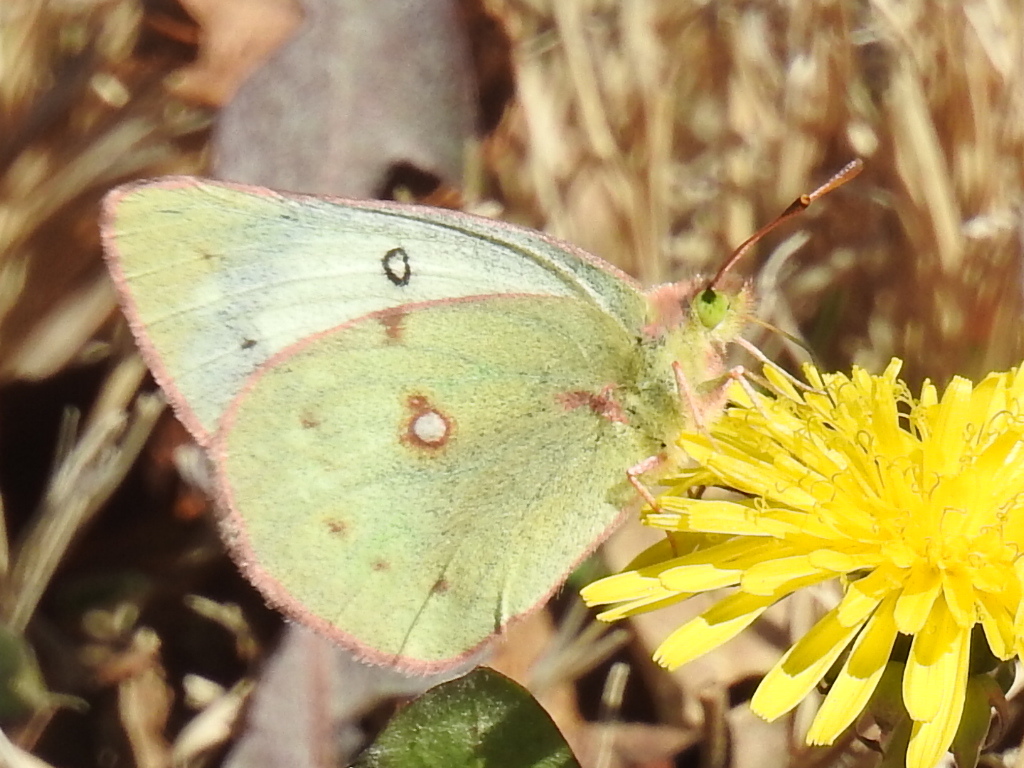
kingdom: Animalia
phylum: Arthropoda
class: Insecta
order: Lepidoptera
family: Pieridae
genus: Colias
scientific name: Colias eurytheme
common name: Alfalfa butterfly
